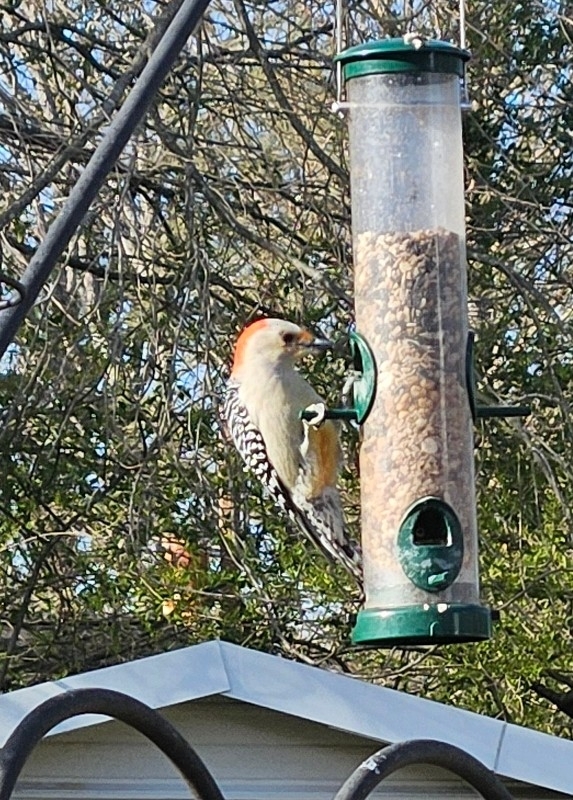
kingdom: Animalia
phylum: Chordata
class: Aves
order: Piciformes
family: Picidae
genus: Melanerpes
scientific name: Melanerpes carolinus
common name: Red-bellied woodpecker
